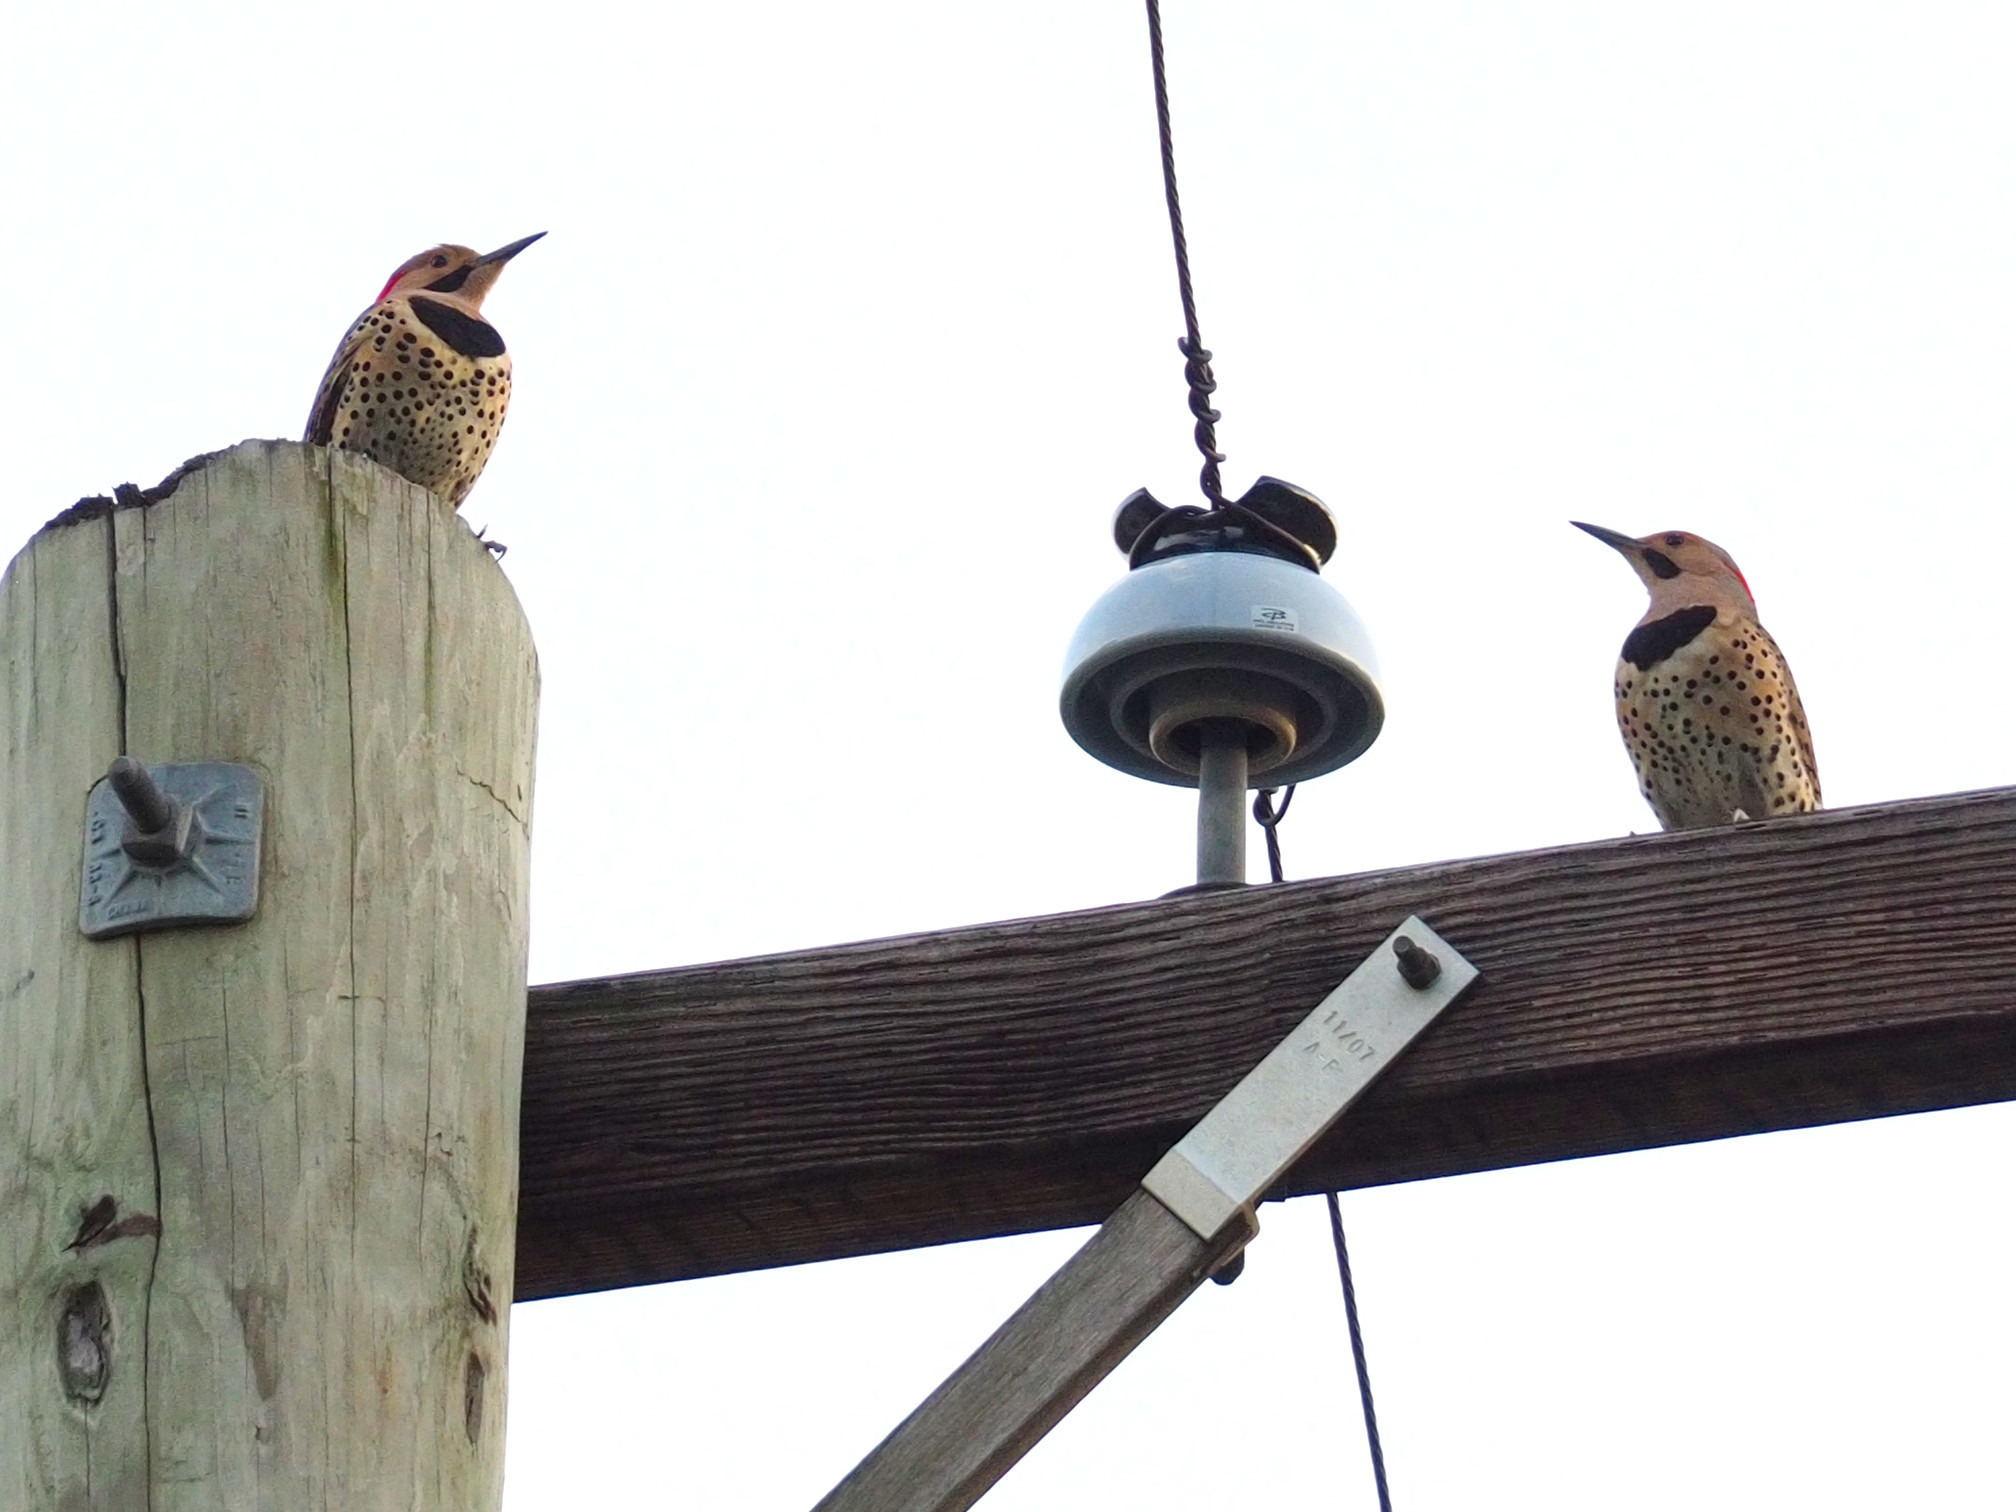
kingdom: Animalia
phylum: Chordata
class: Aves
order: Piciformes
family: Picidae
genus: Colaptes
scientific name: Colaptes auratus
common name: Northern flicker
